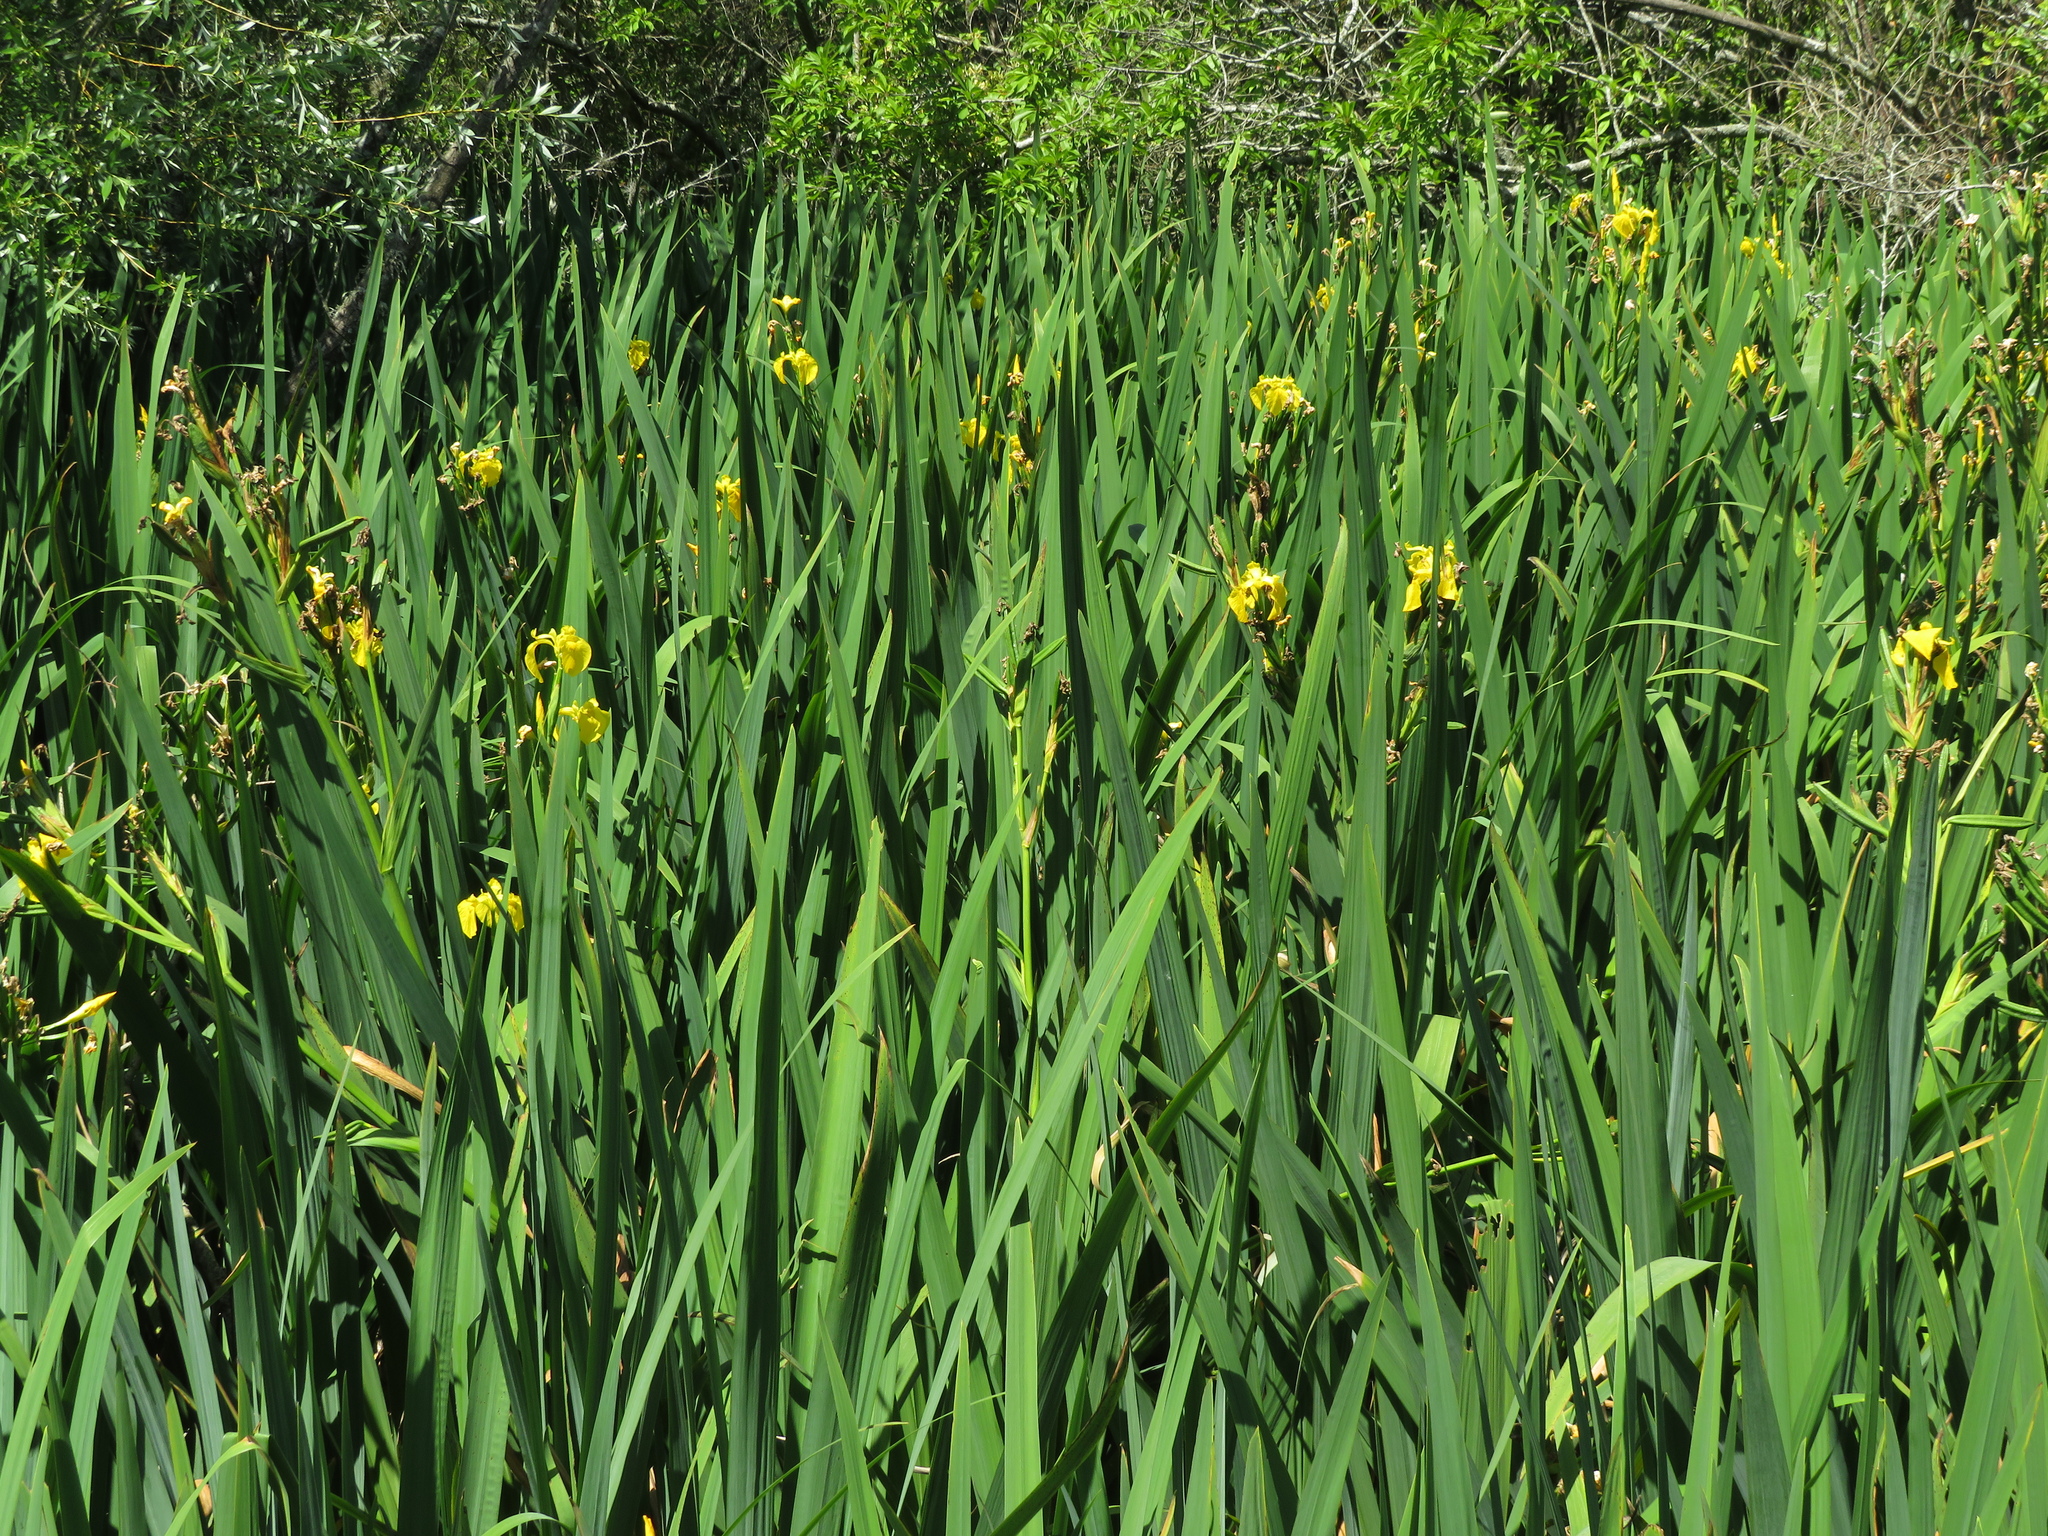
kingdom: Plantae
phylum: Tracheophyta
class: Liliopsida
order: Asparagales
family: Iridaceae
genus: Iris
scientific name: Iris pseudacorus
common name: Yellow flag
